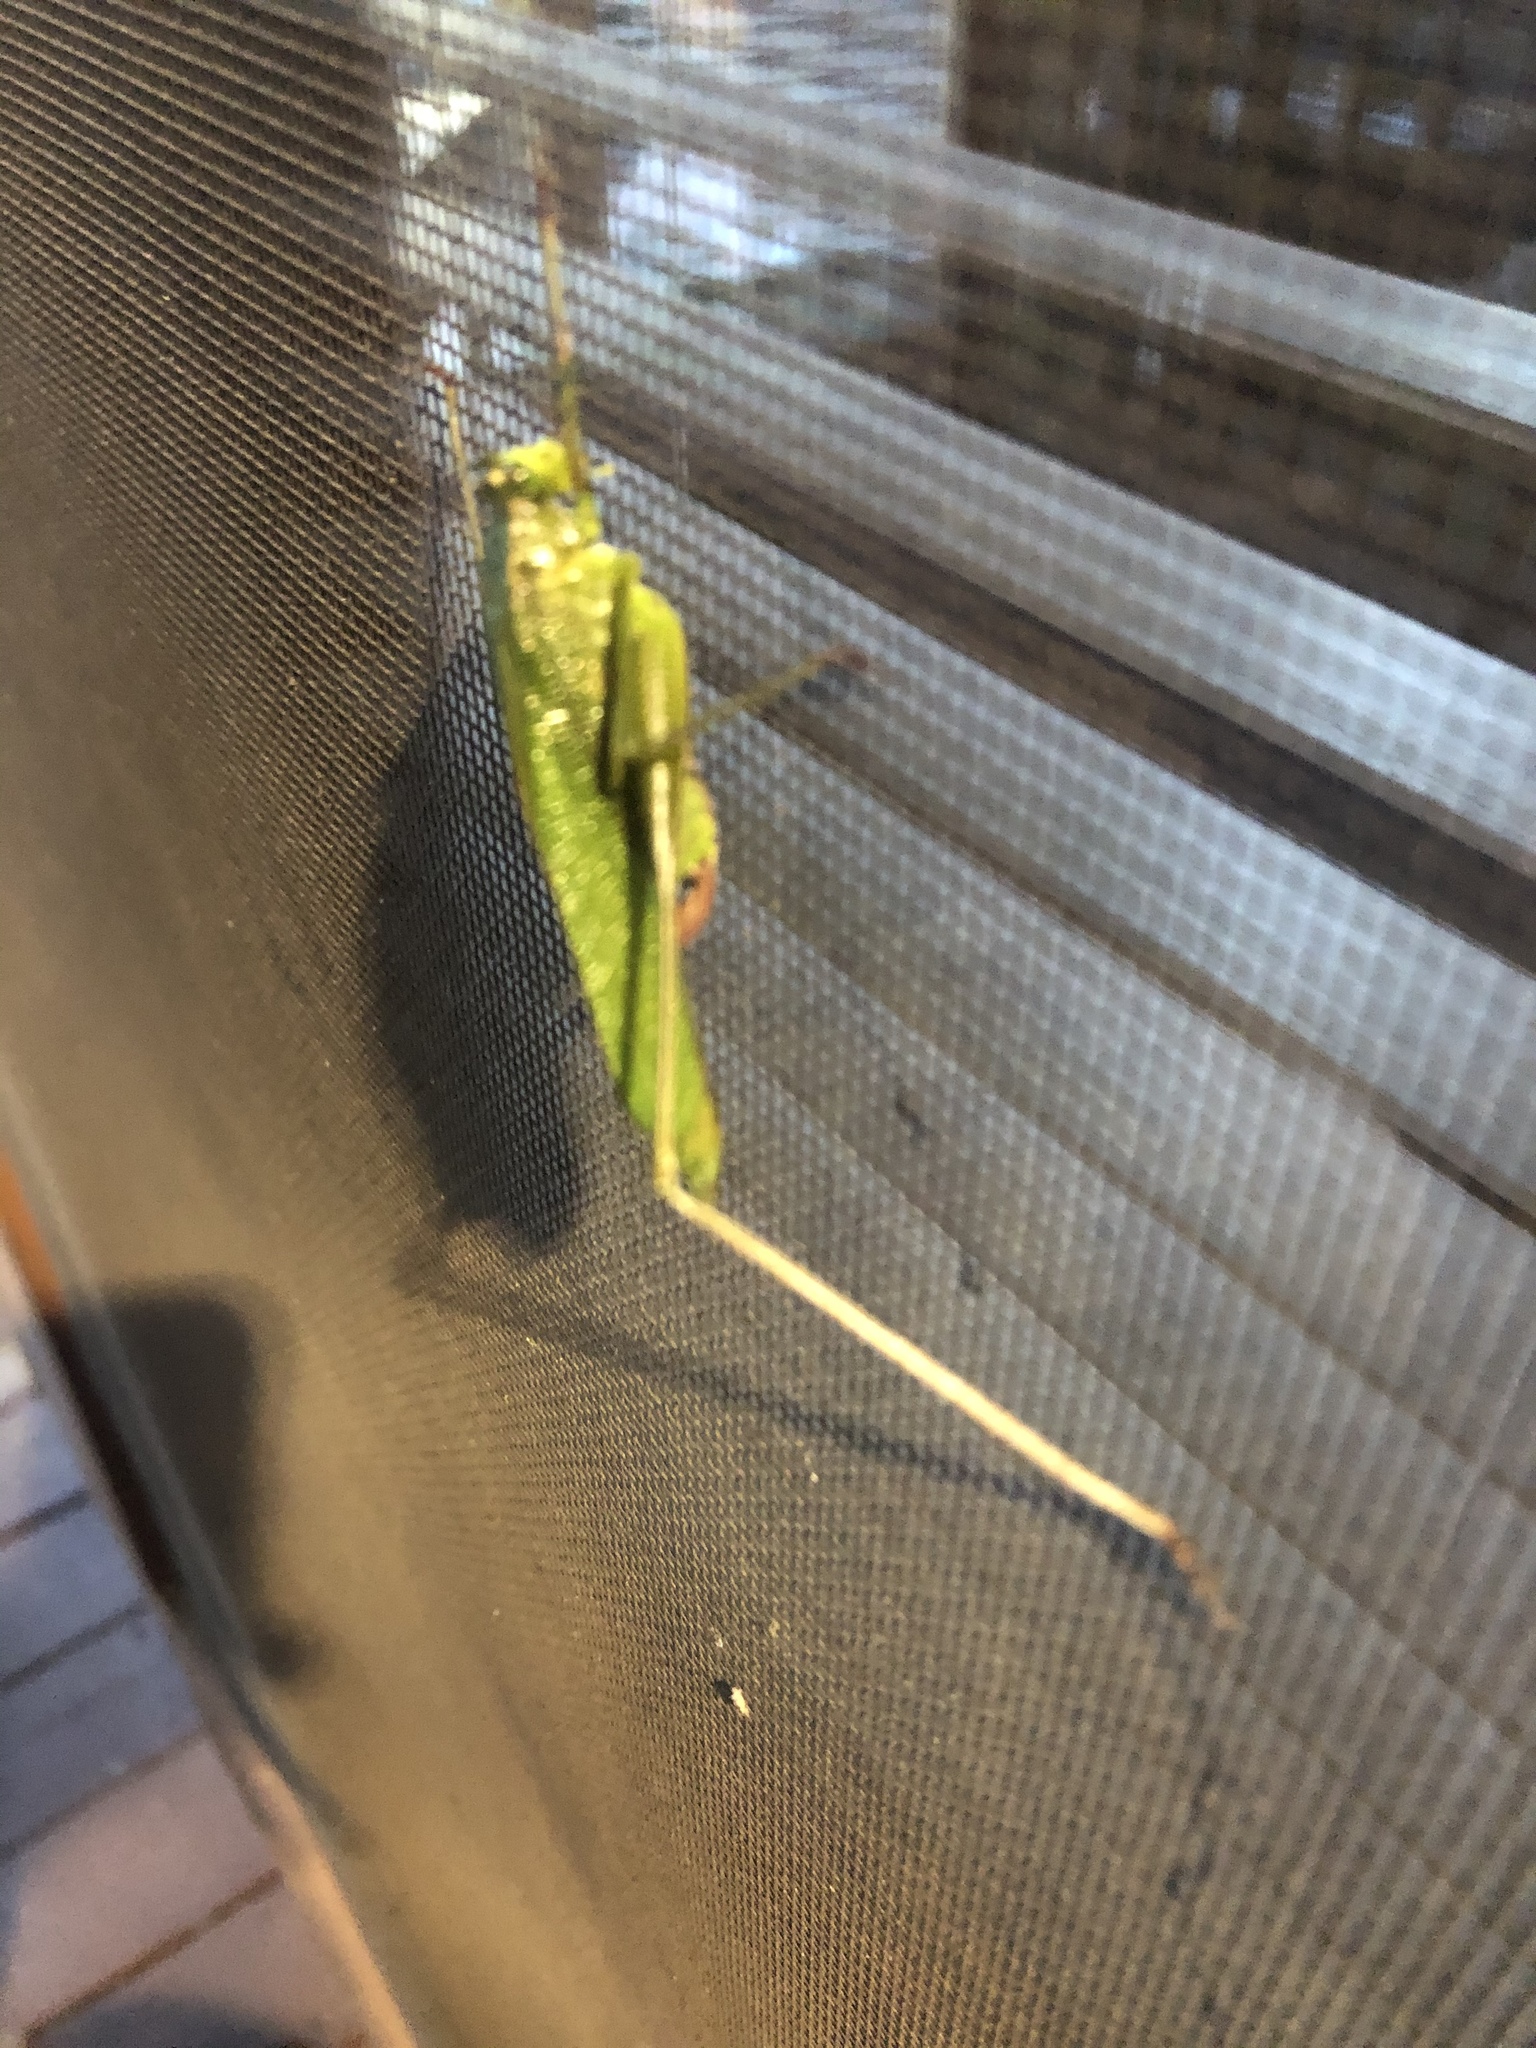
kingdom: Animalia
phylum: Arthropoda
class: Insecta
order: Orthoptera
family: Tettigoniidae
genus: Scudderia
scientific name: Scudderia furcata
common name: Fork-tailed bush katydid
